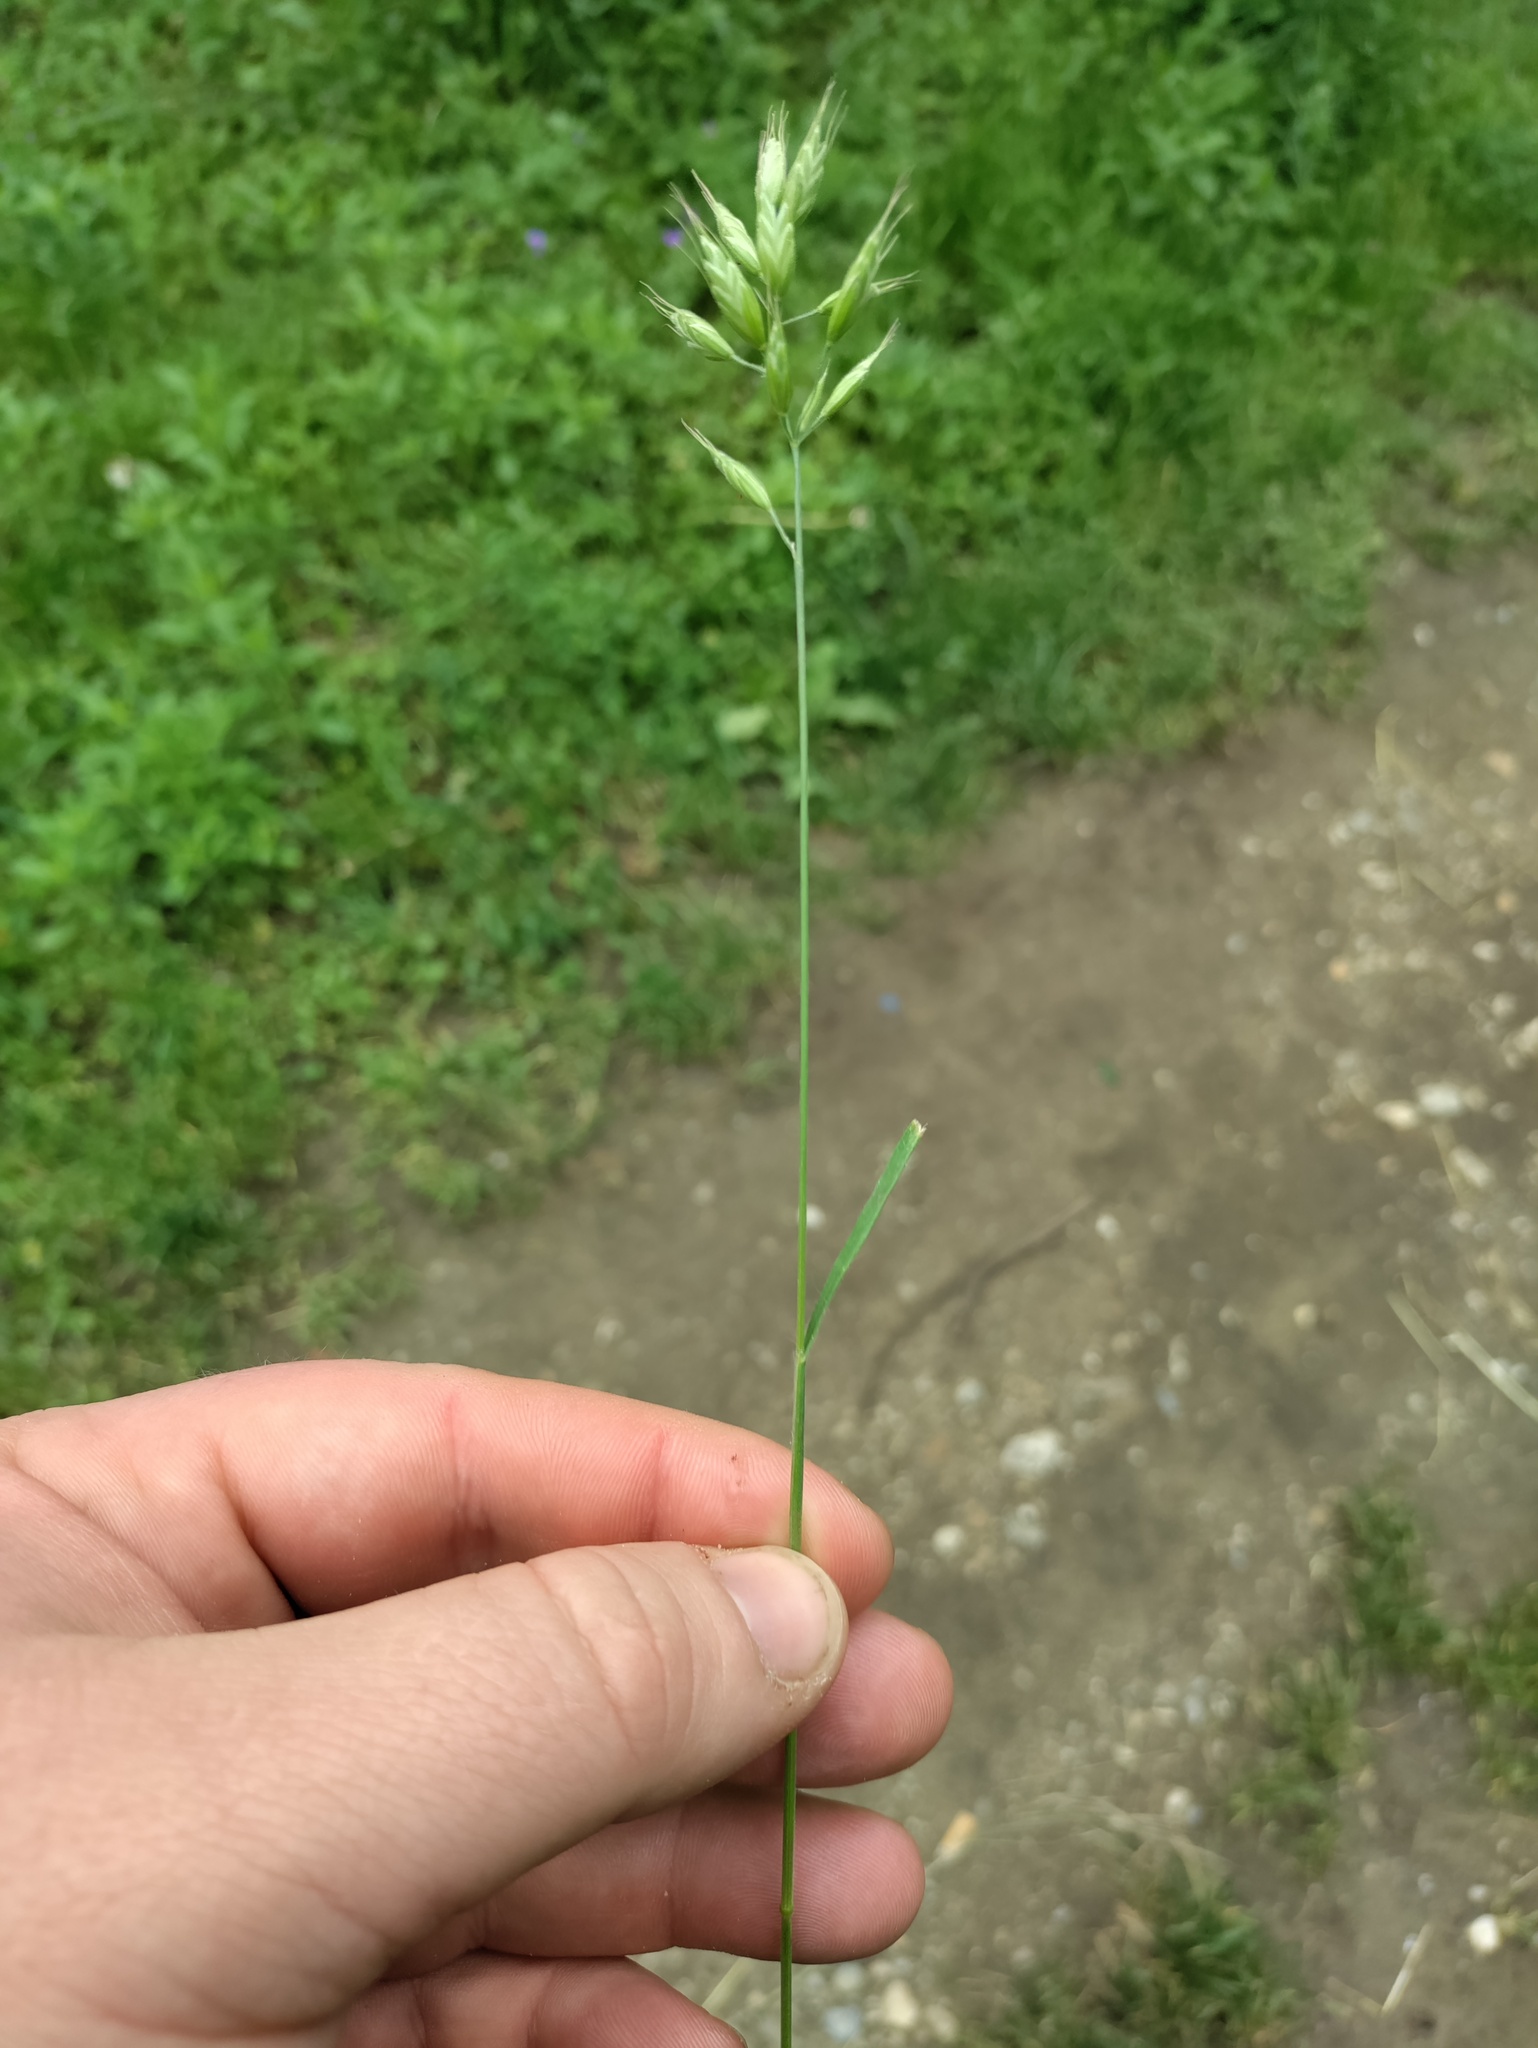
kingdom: Plantae
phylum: Tracheophyta
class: Liliopsida
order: Poales
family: Poaceae
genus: Bromus
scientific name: Bromus hordeaceus
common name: Soft brome
